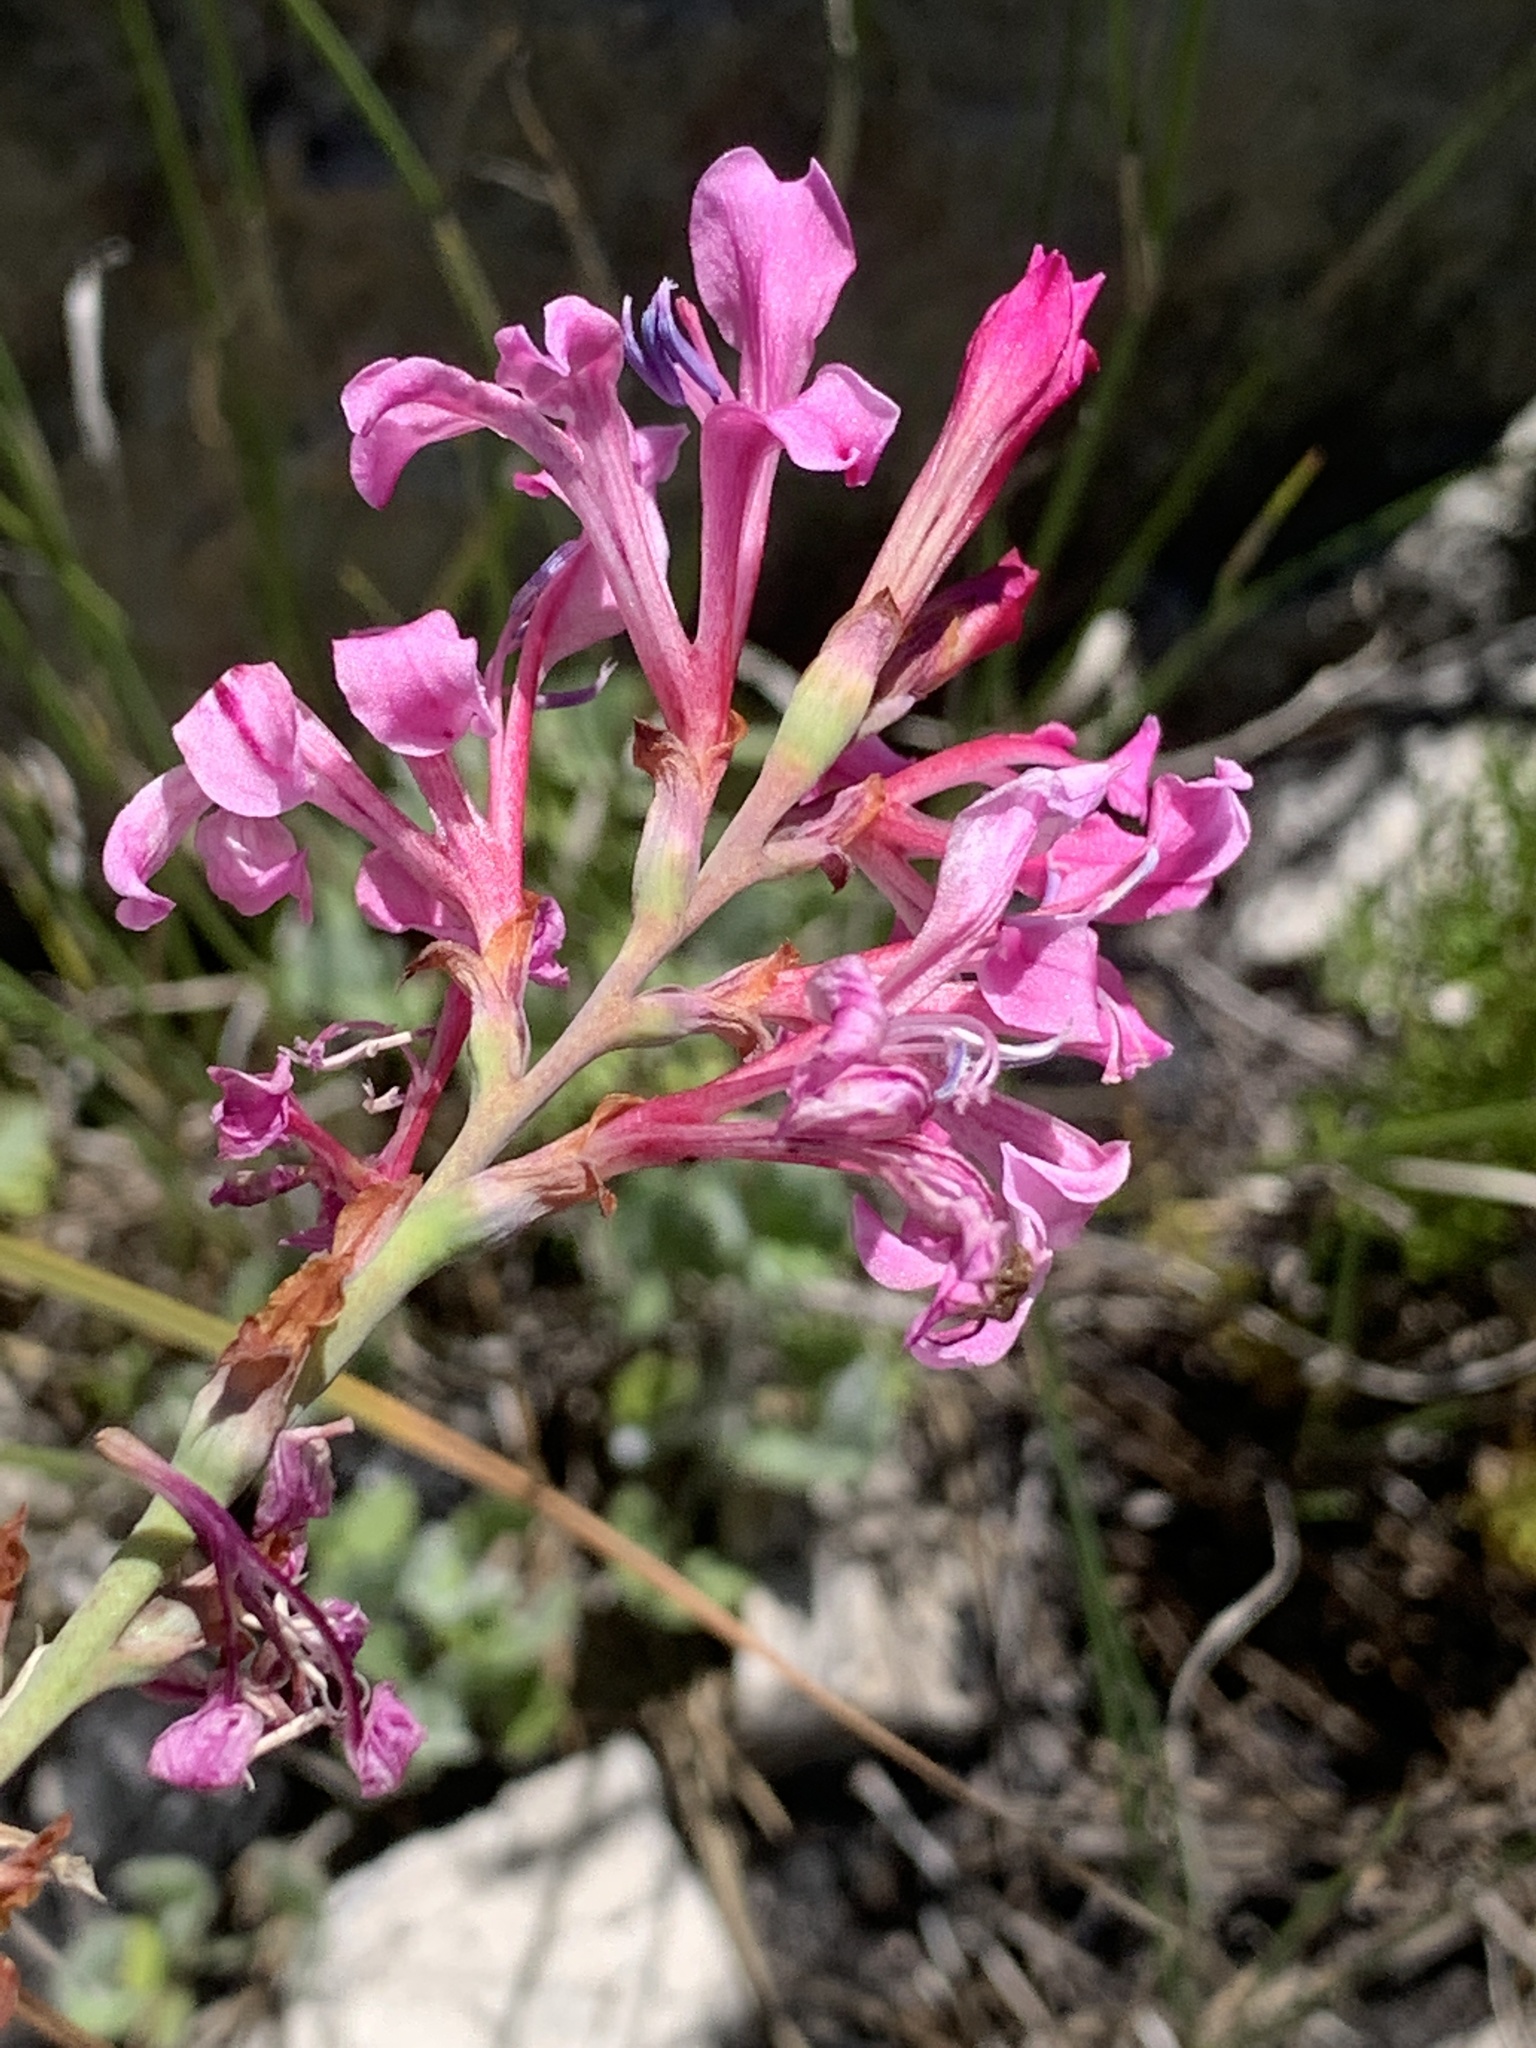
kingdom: Plantae
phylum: Tracheophyta
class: Liliopsida
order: Asparagales
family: Iridaceae
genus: Tritoniopsis
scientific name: Tritoniopsis lata
